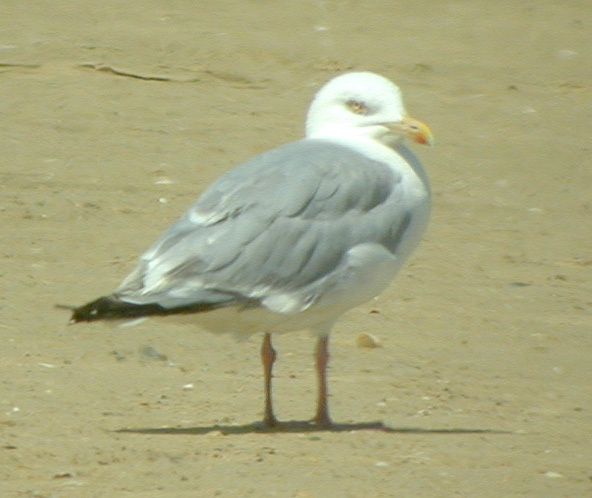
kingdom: Animalia
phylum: Chordata
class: Aves
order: Charadriiformes
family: Laridae
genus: Larus
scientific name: Larus michahellis
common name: Yellow-legged gull
